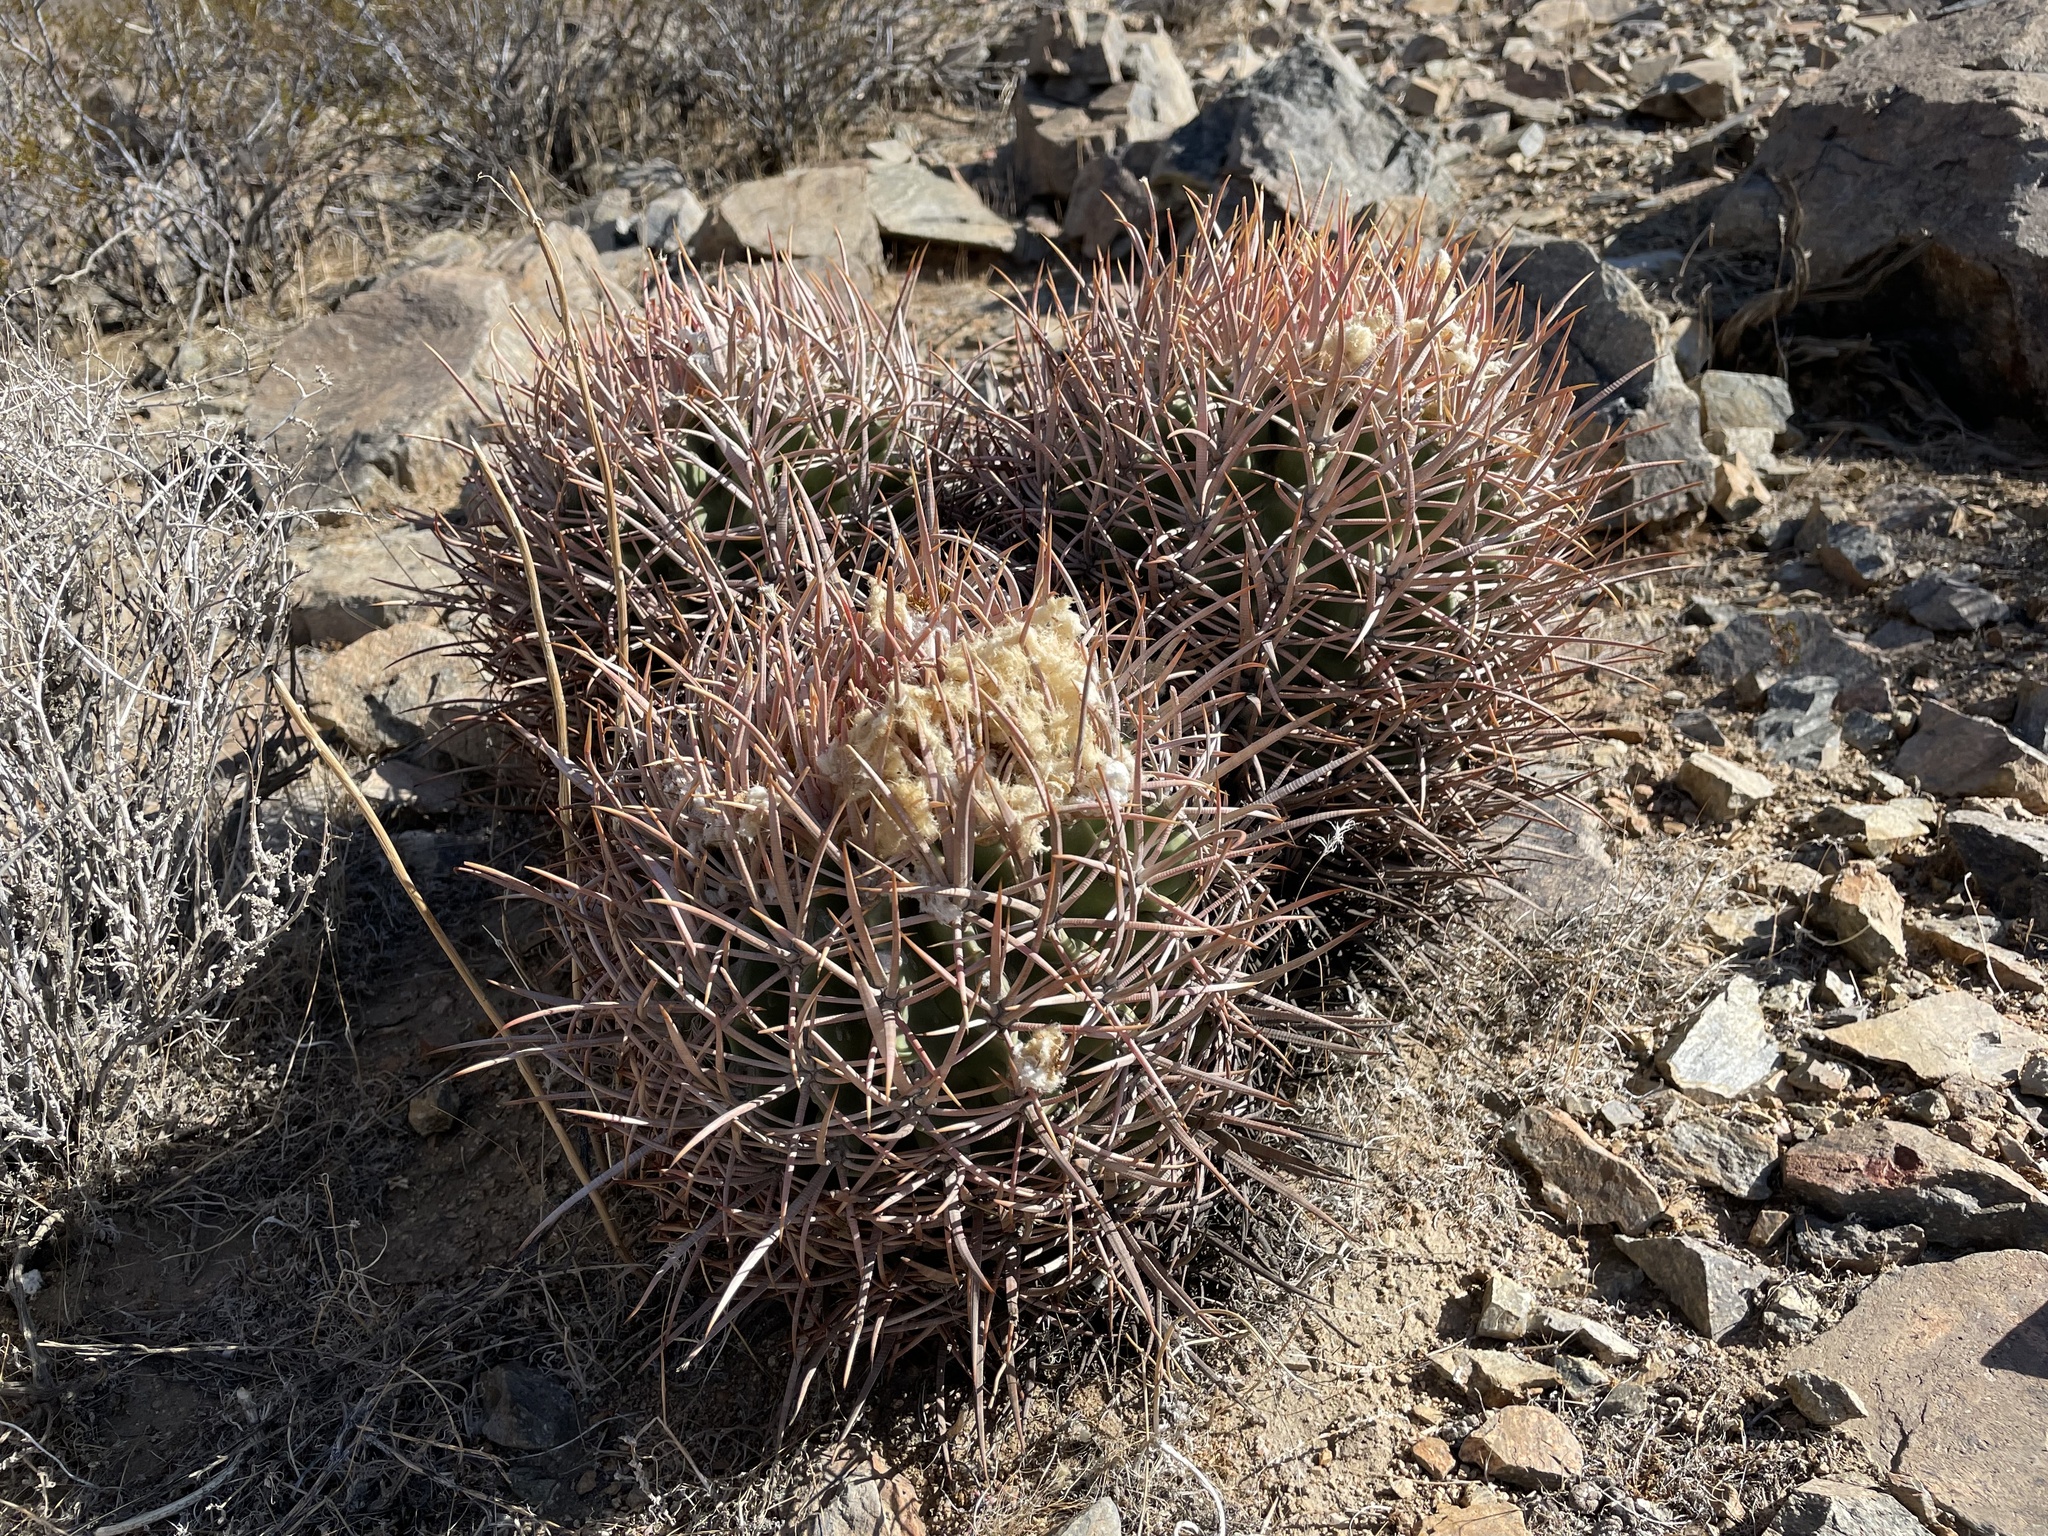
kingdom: Plantae
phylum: Tracheophyta
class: Magnoliopsida
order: Caryophyllales
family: Cactaceae
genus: Echinocactus
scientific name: Echinocactus polycephalus
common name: Cottontop cactus
